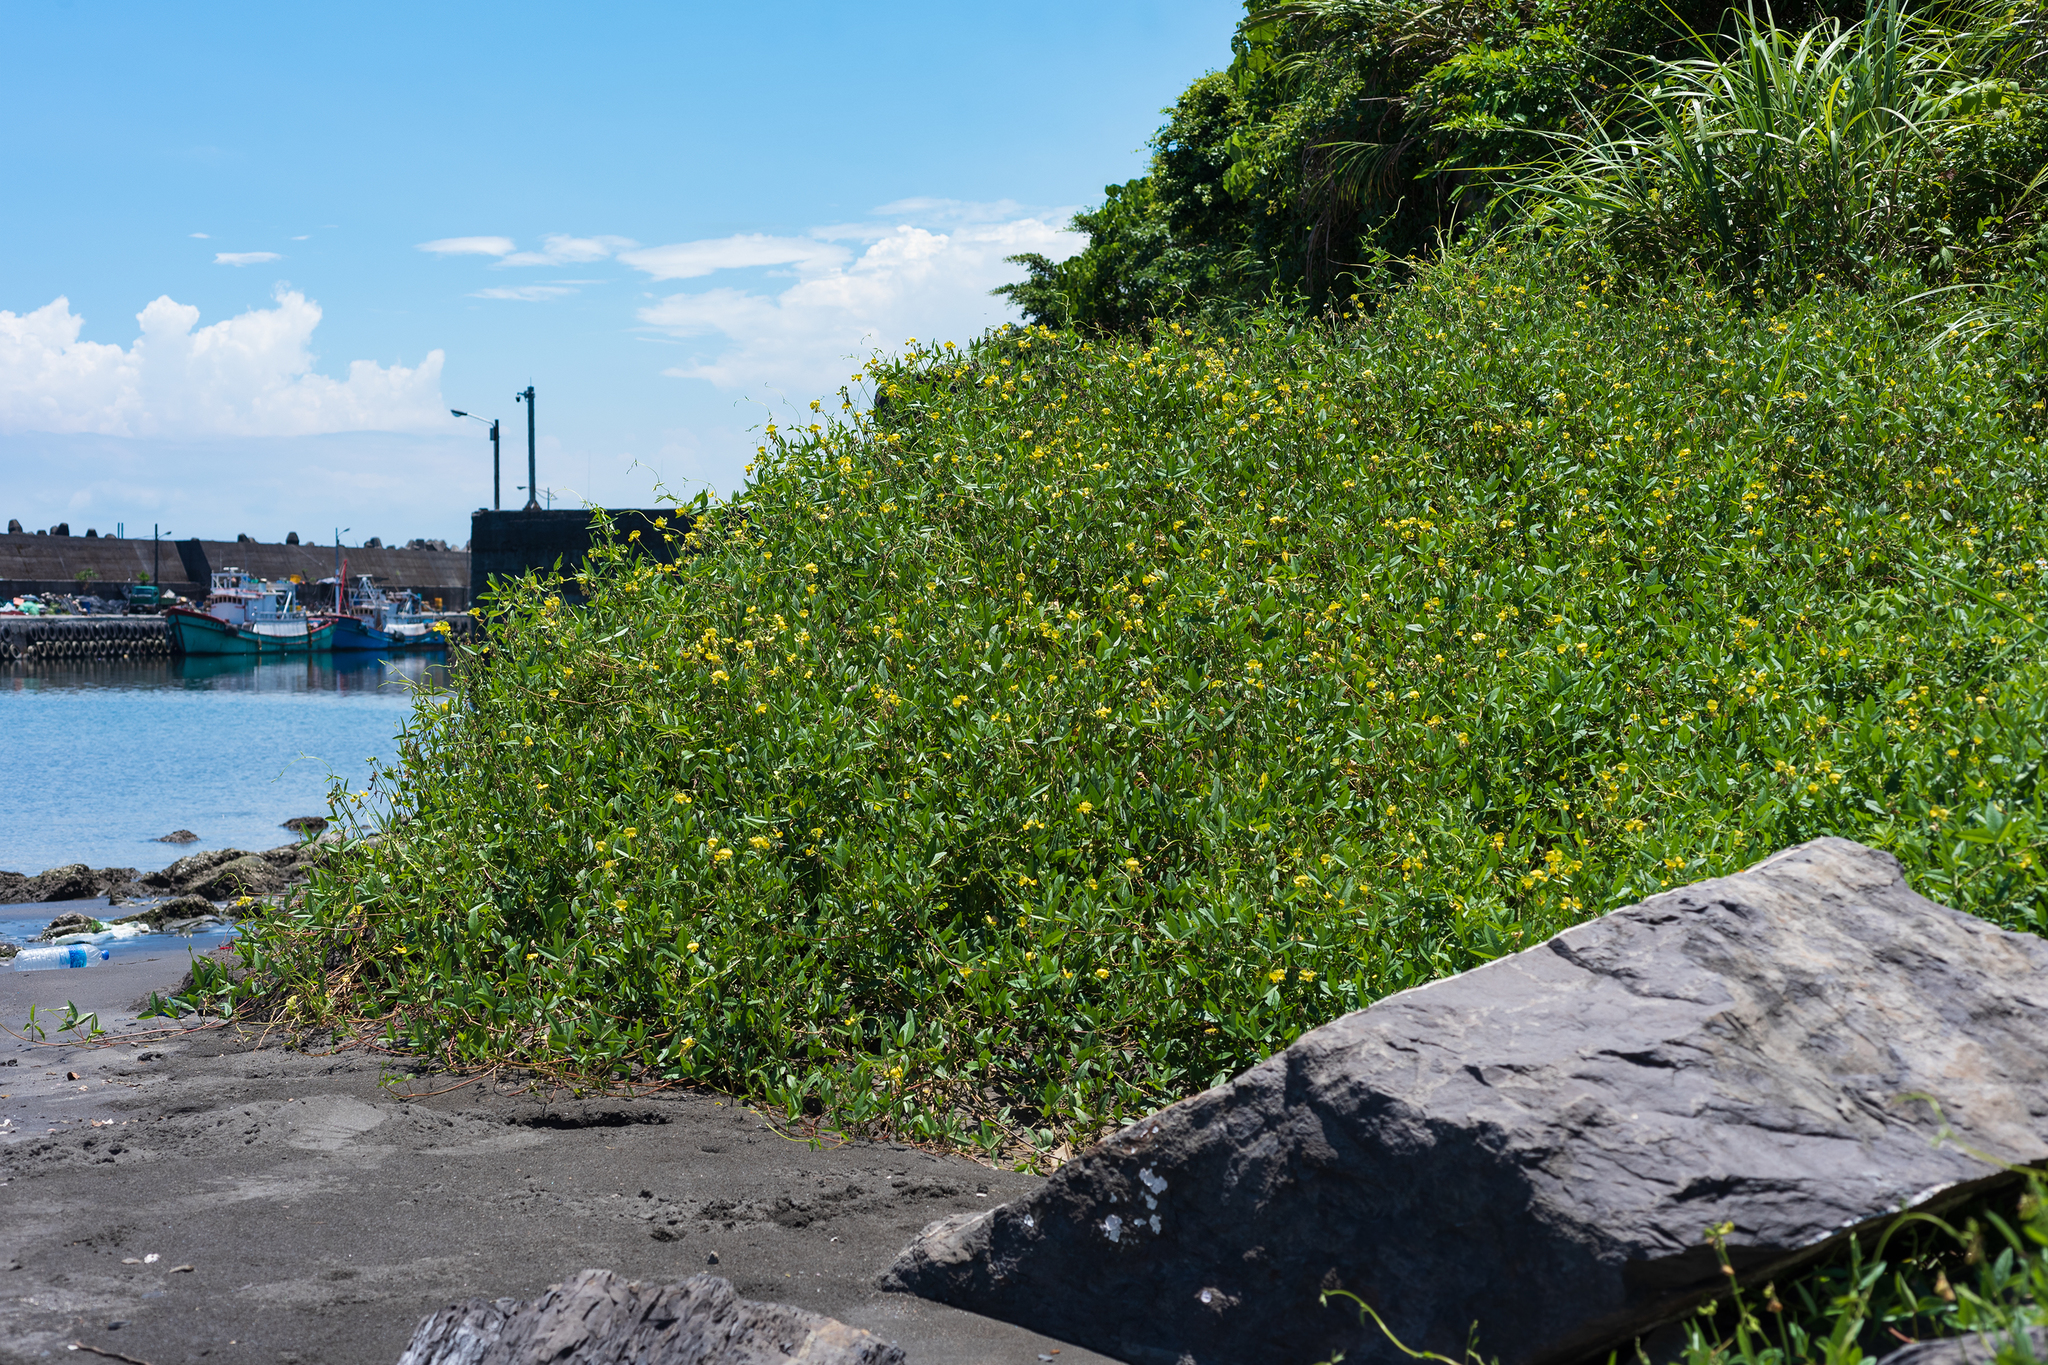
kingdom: Plantae
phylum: Tracheophyta
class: Magnoliopsida
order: Fabales
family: Fabaceae
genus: Vigna
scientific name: Vigna luteola
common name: Hairypod cowpea
